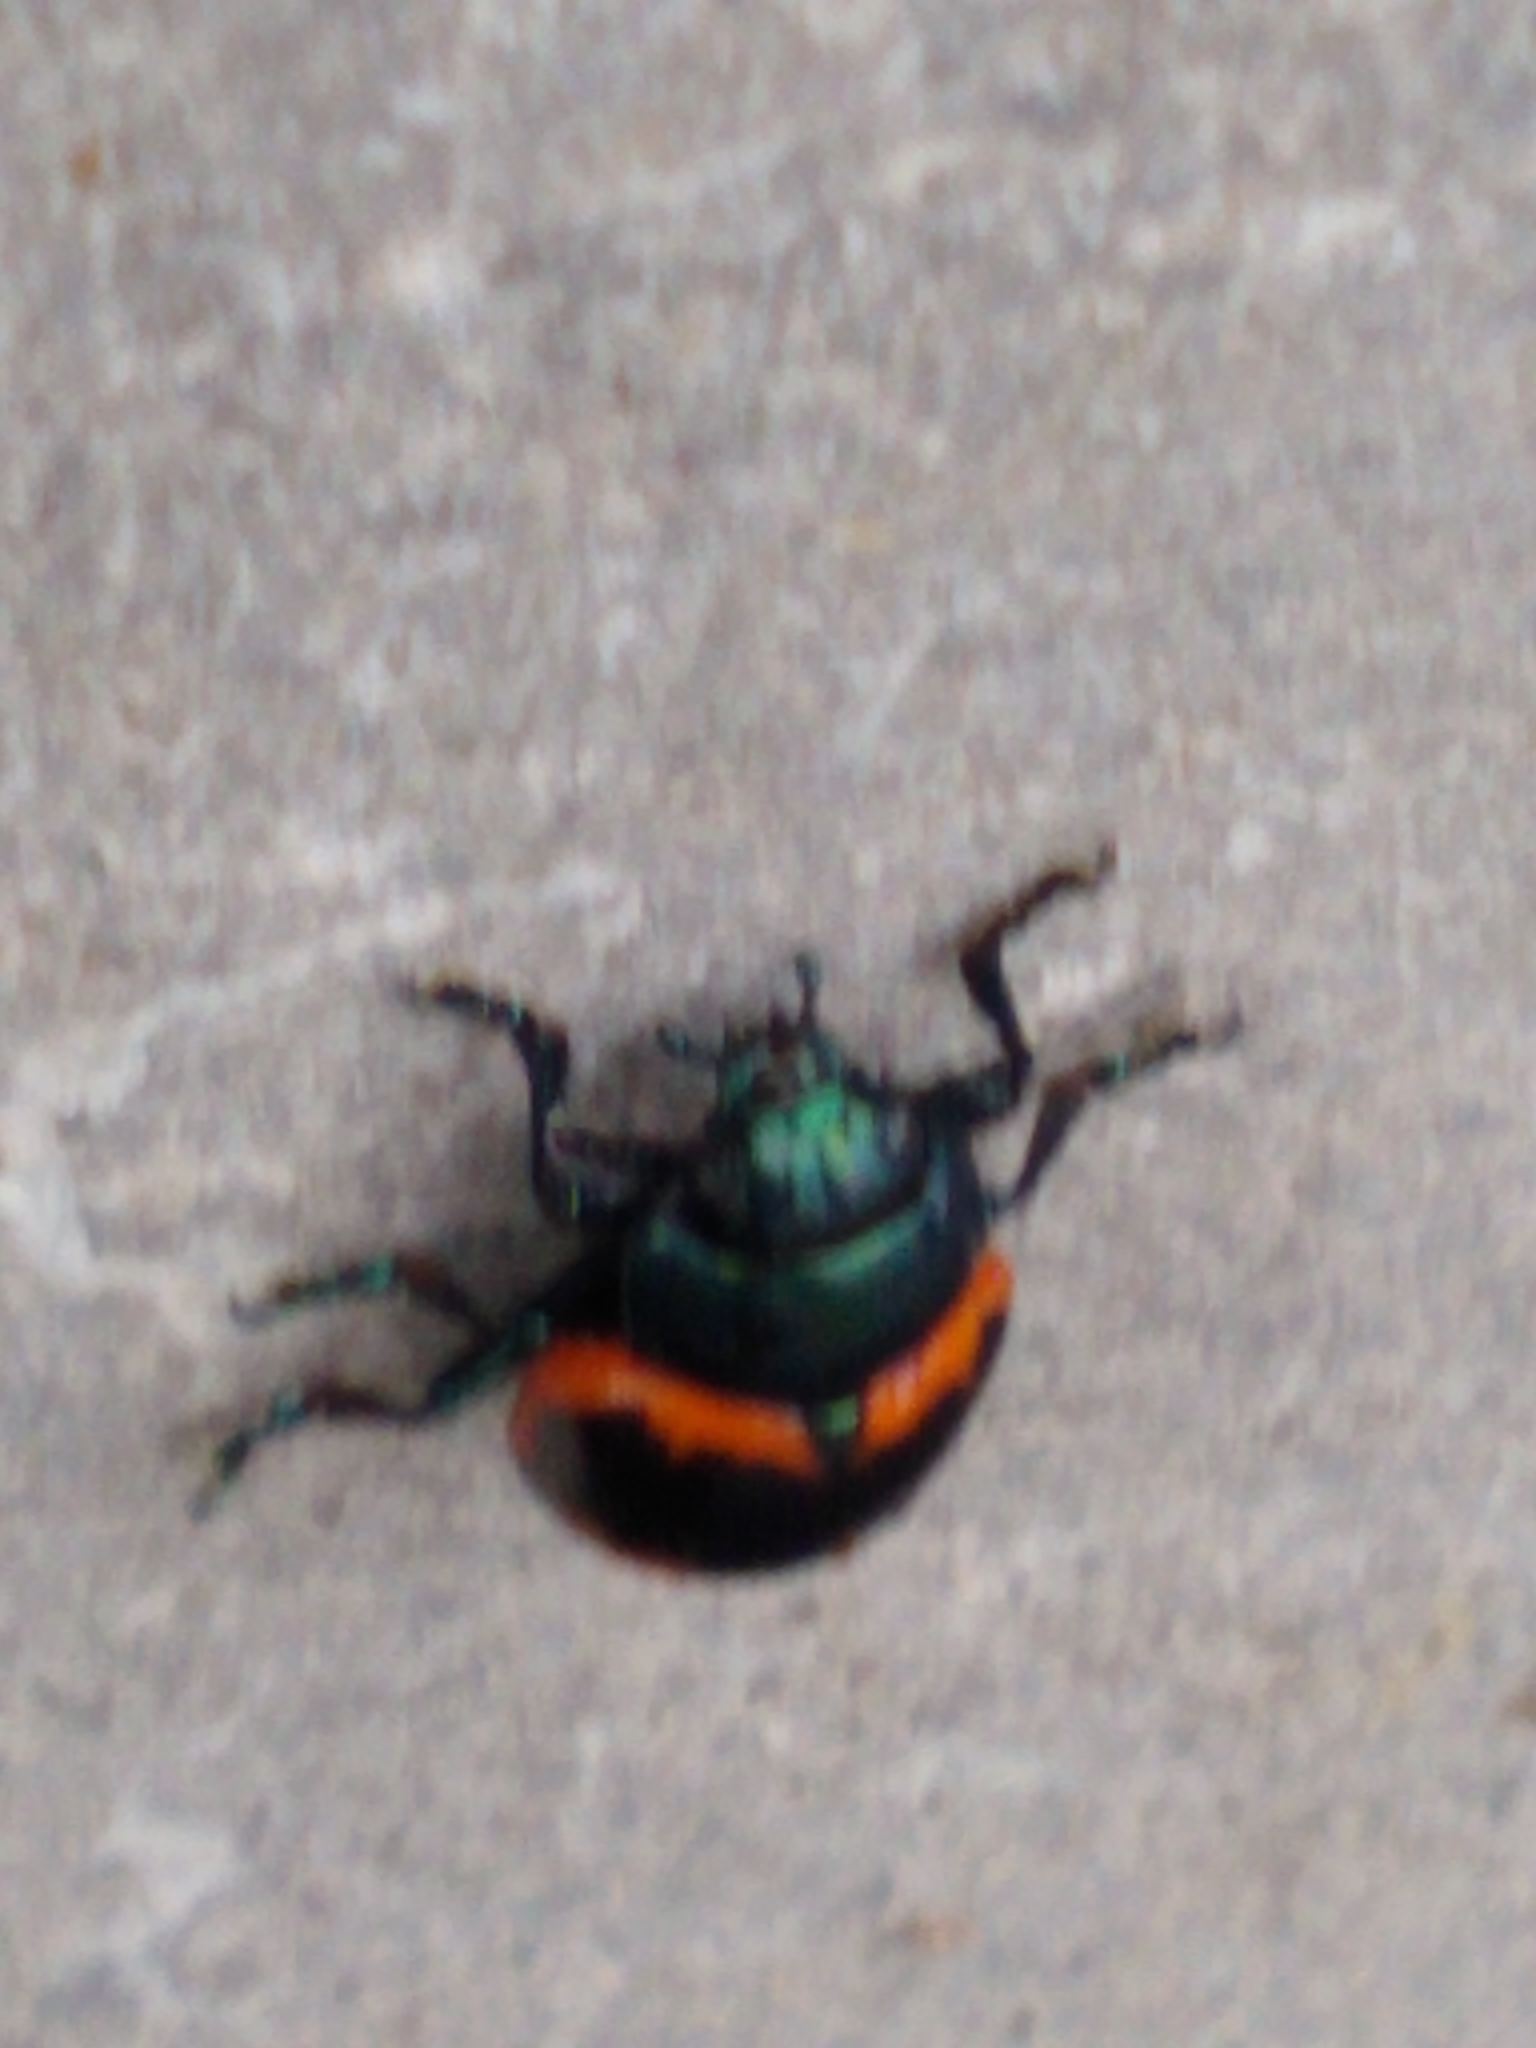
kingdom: Animalia
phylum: Arthropoda
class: Insecta
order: Coleoptera
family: Chrysomelidae
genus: Labidomera
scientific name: Labidomera clivicollis
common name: Swamp milkweed leaf beetle
